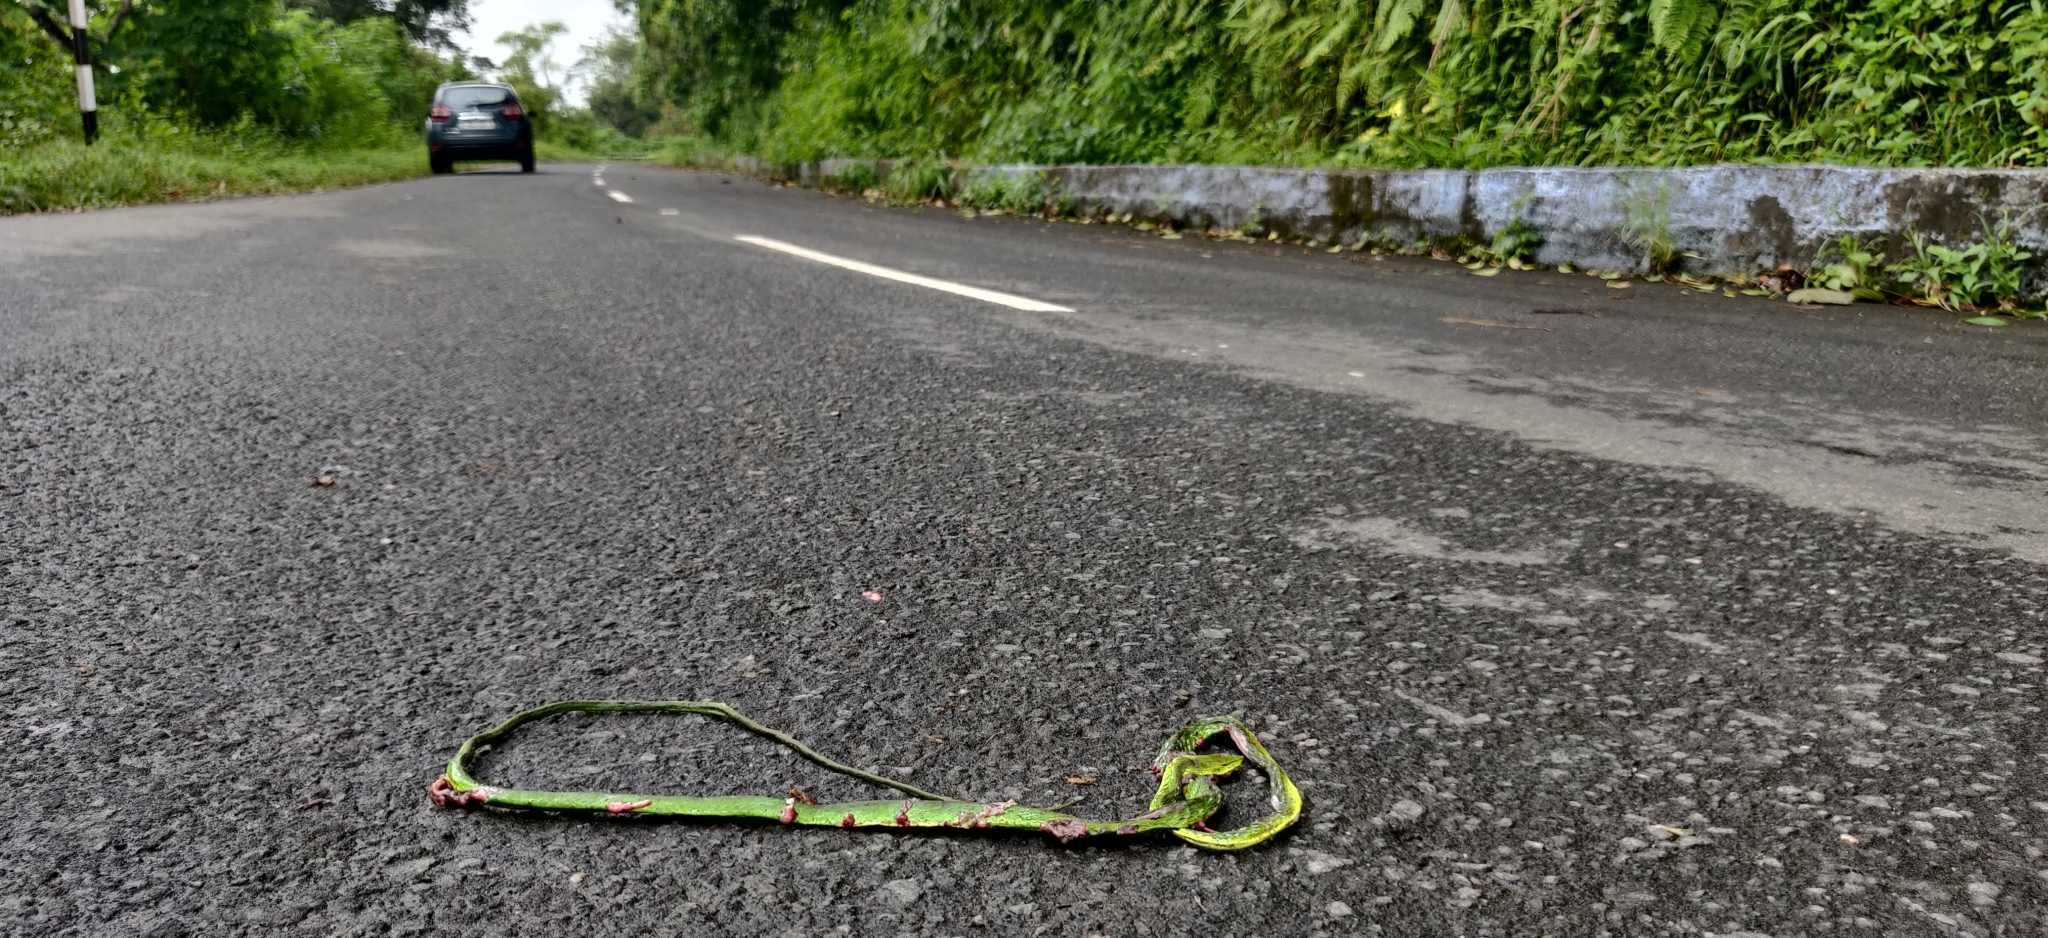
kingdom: Animalia
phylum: Chordata
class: Squamata
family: Colubridae
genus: Ahaetulla
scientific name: Ahaetulla isabellina
